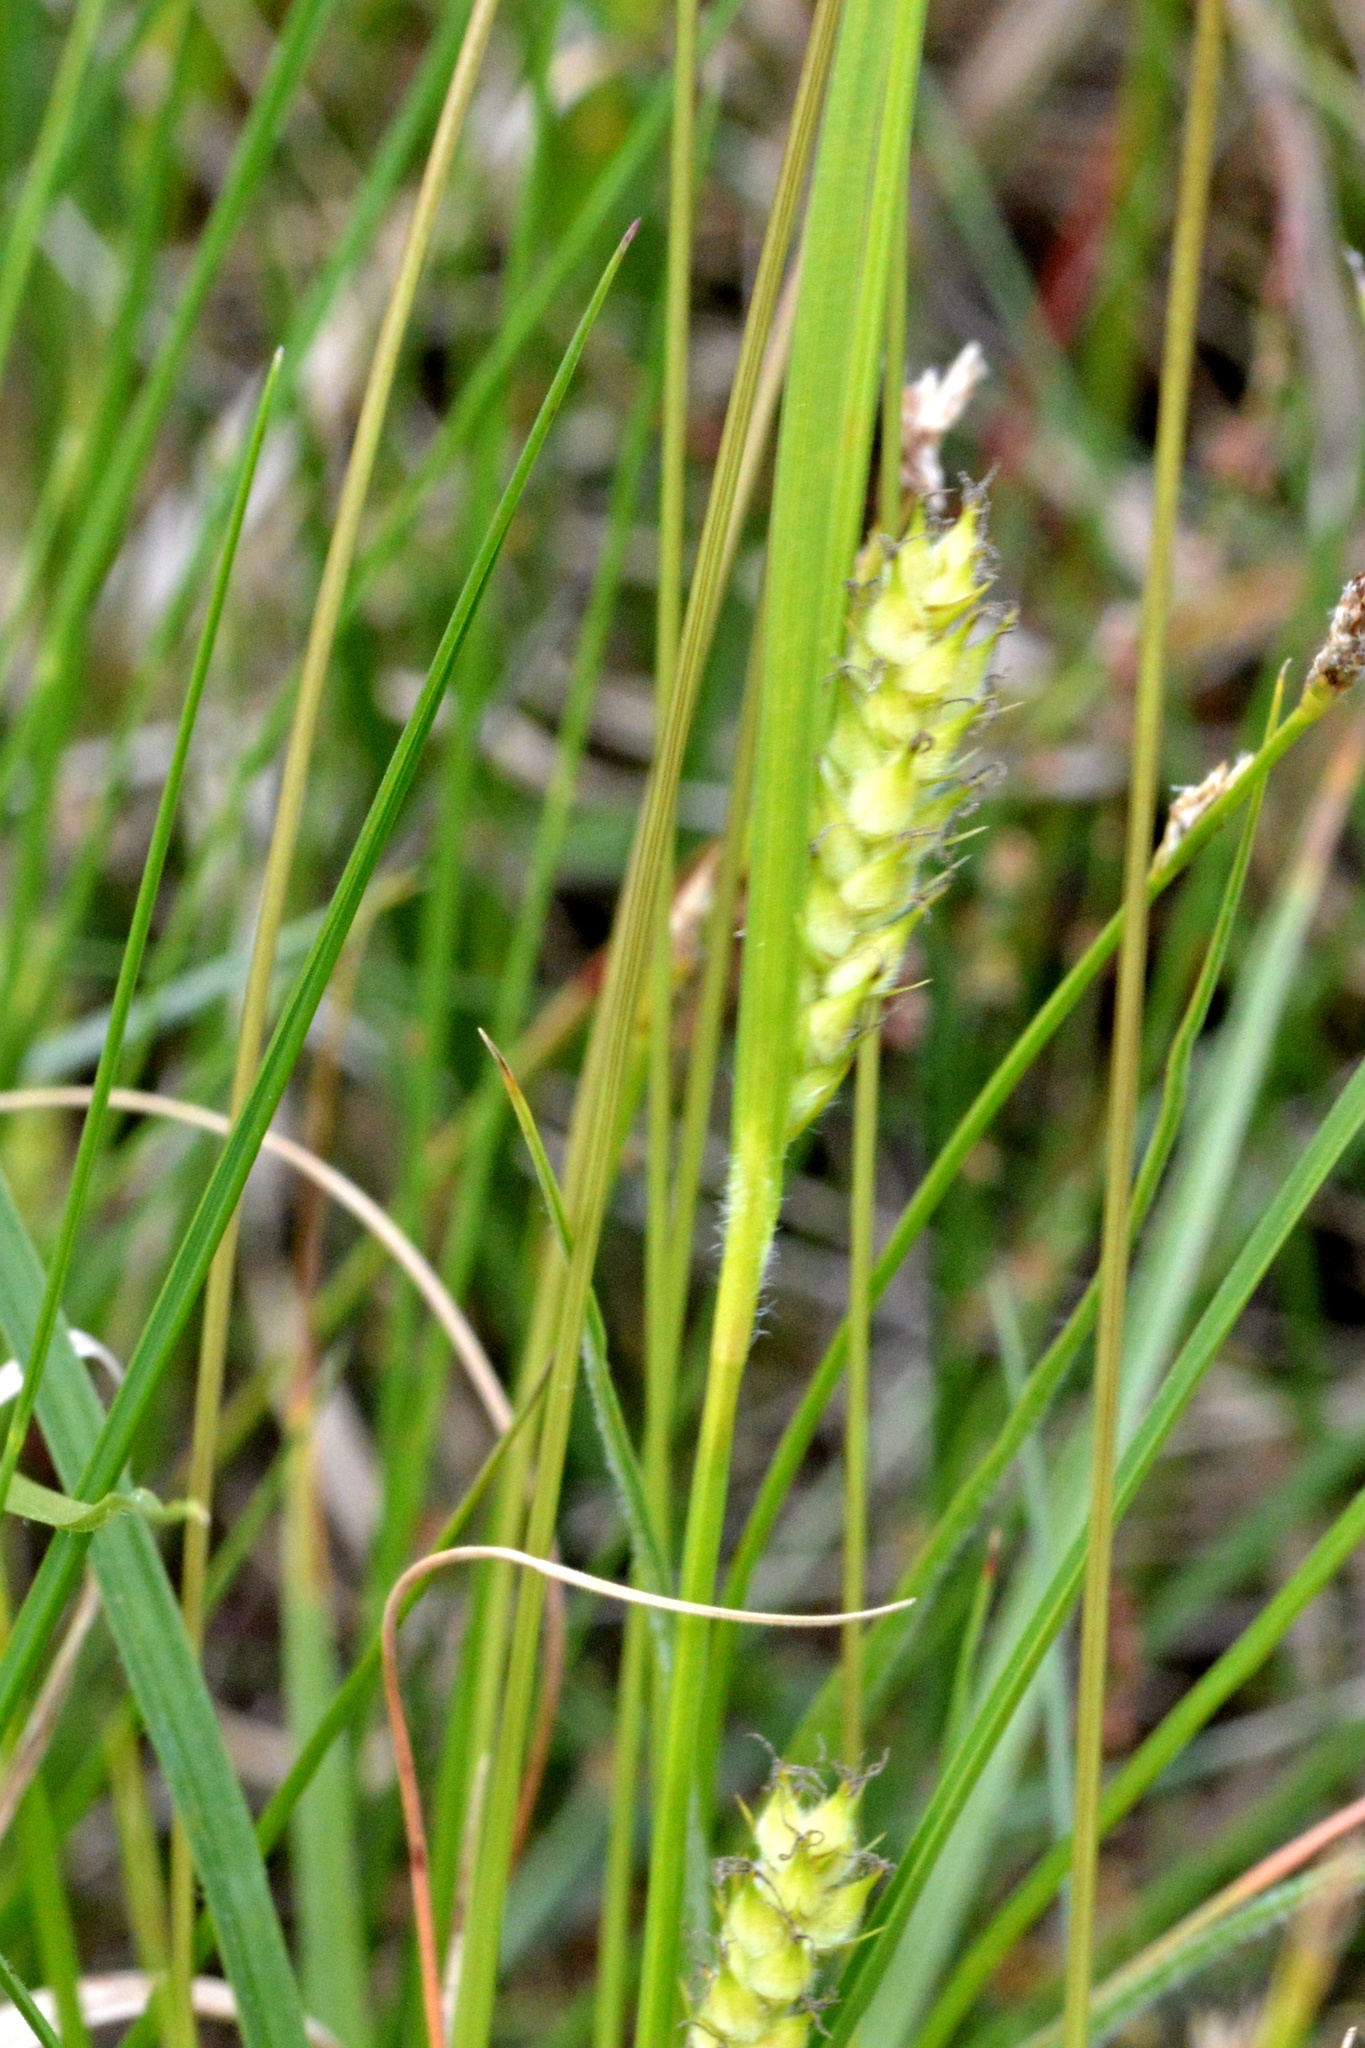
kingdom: Plantae
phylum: Tracheophyta
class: Liliopsida
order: Poales
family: Cyperaceae
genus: Carex
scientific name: Carex hirta
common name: Hairy sedge
